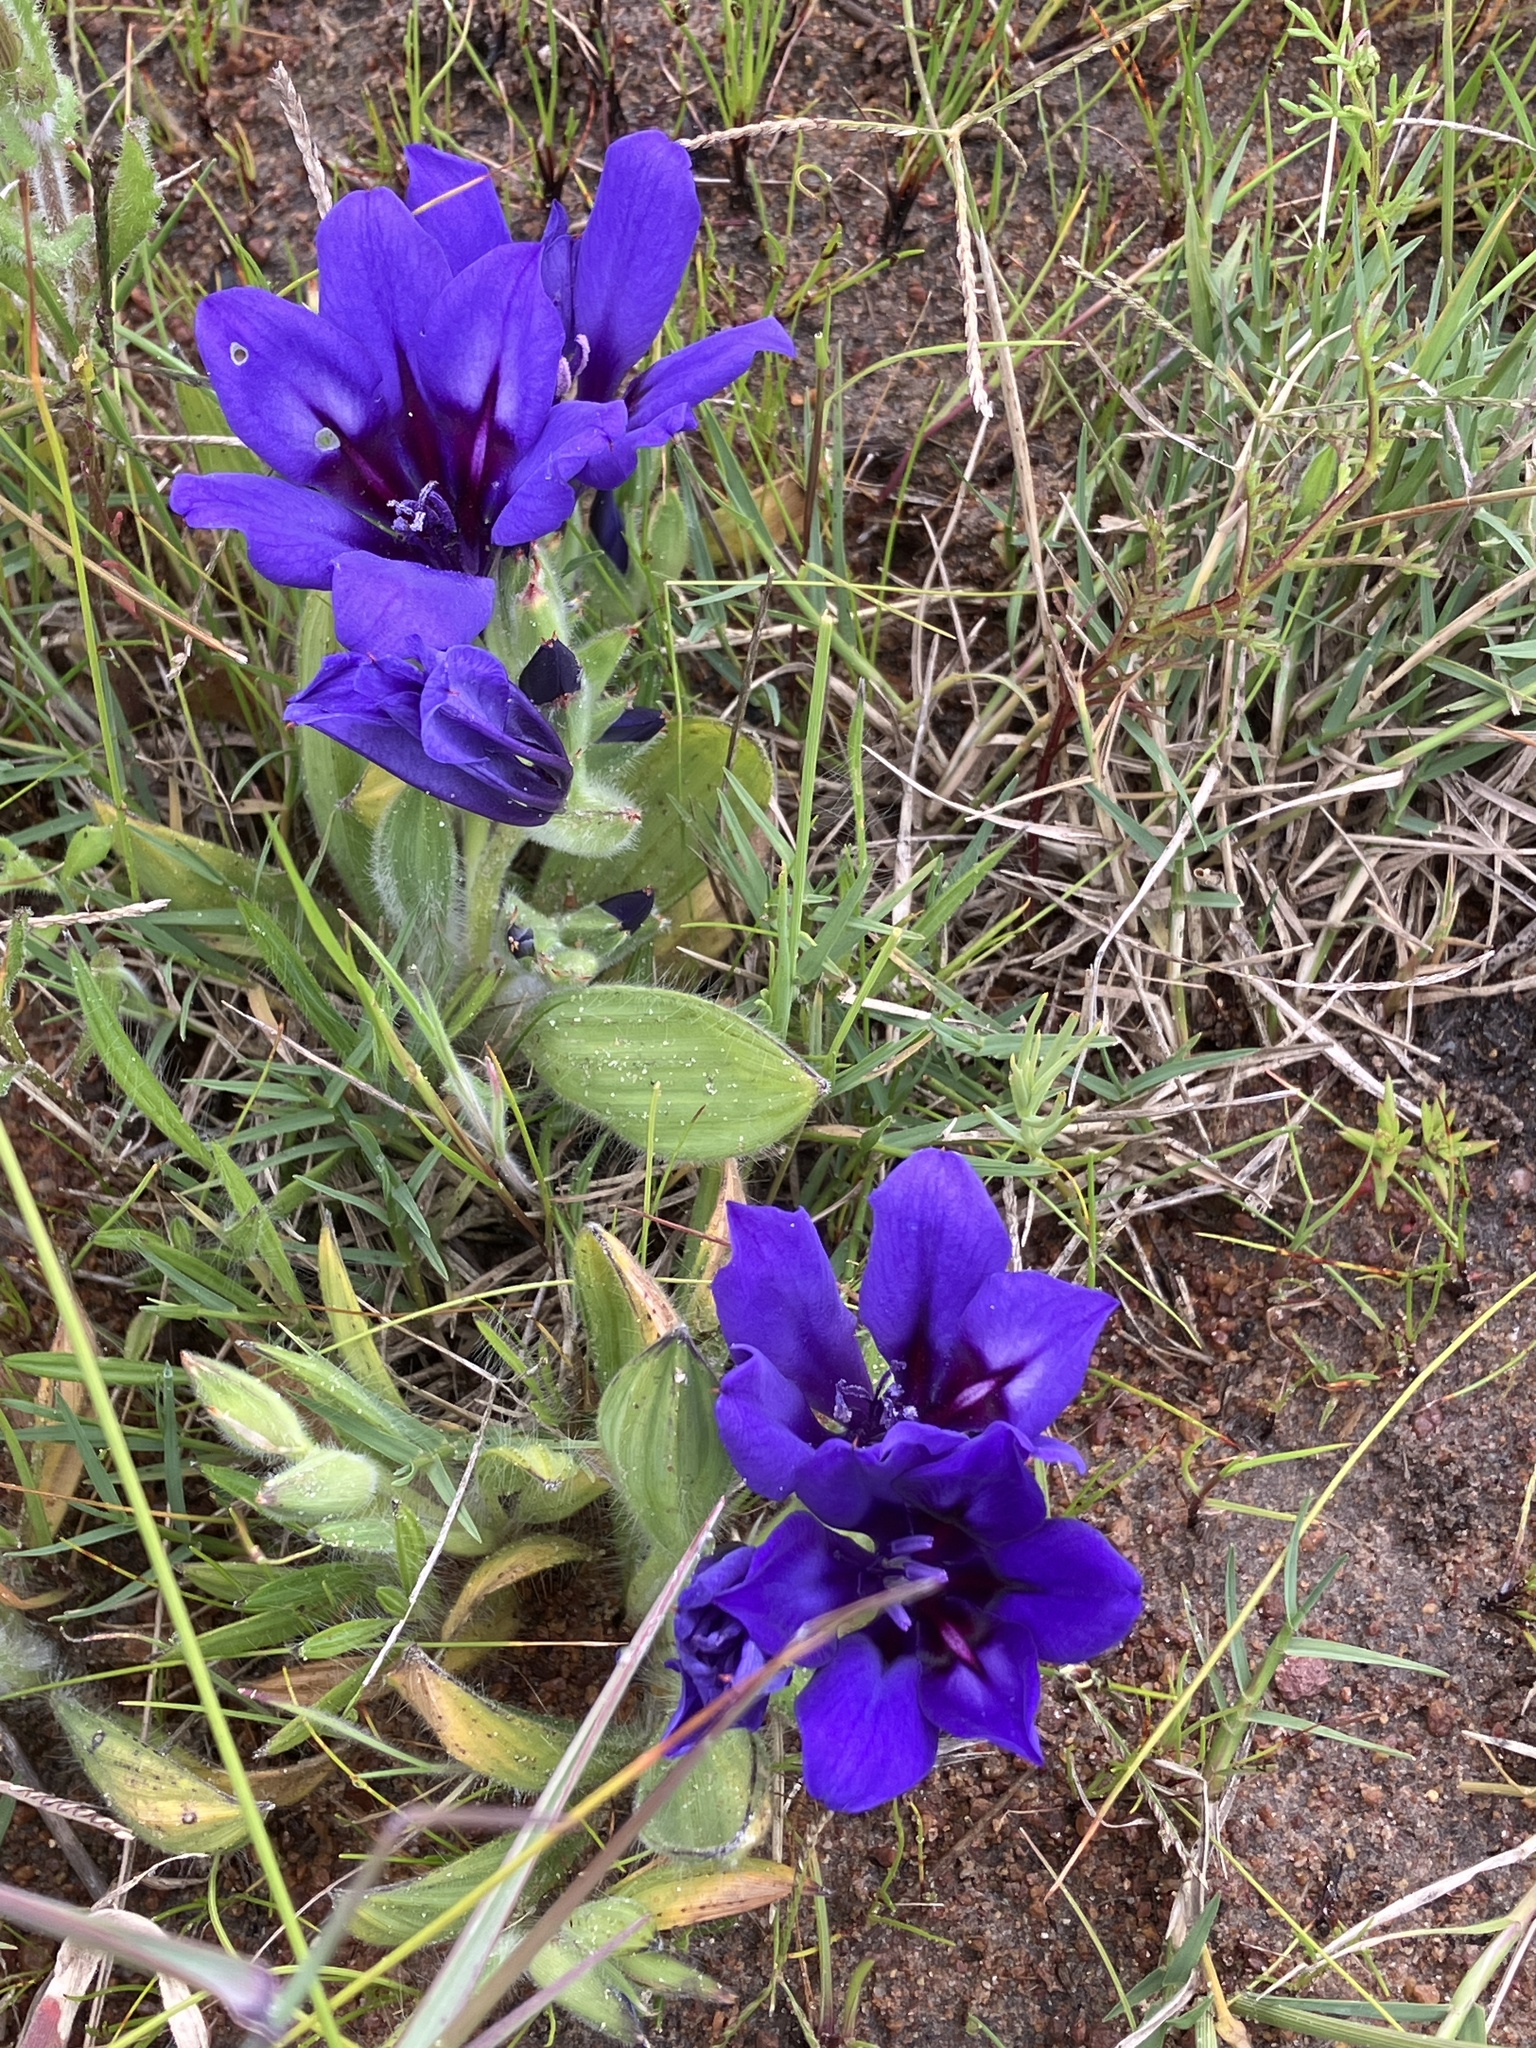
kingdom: Plantae
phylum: Tracheophyta
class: Liliopsida
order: Asparagales
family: Iridaceae
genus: Babiana
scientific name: Babiana angustifolia
